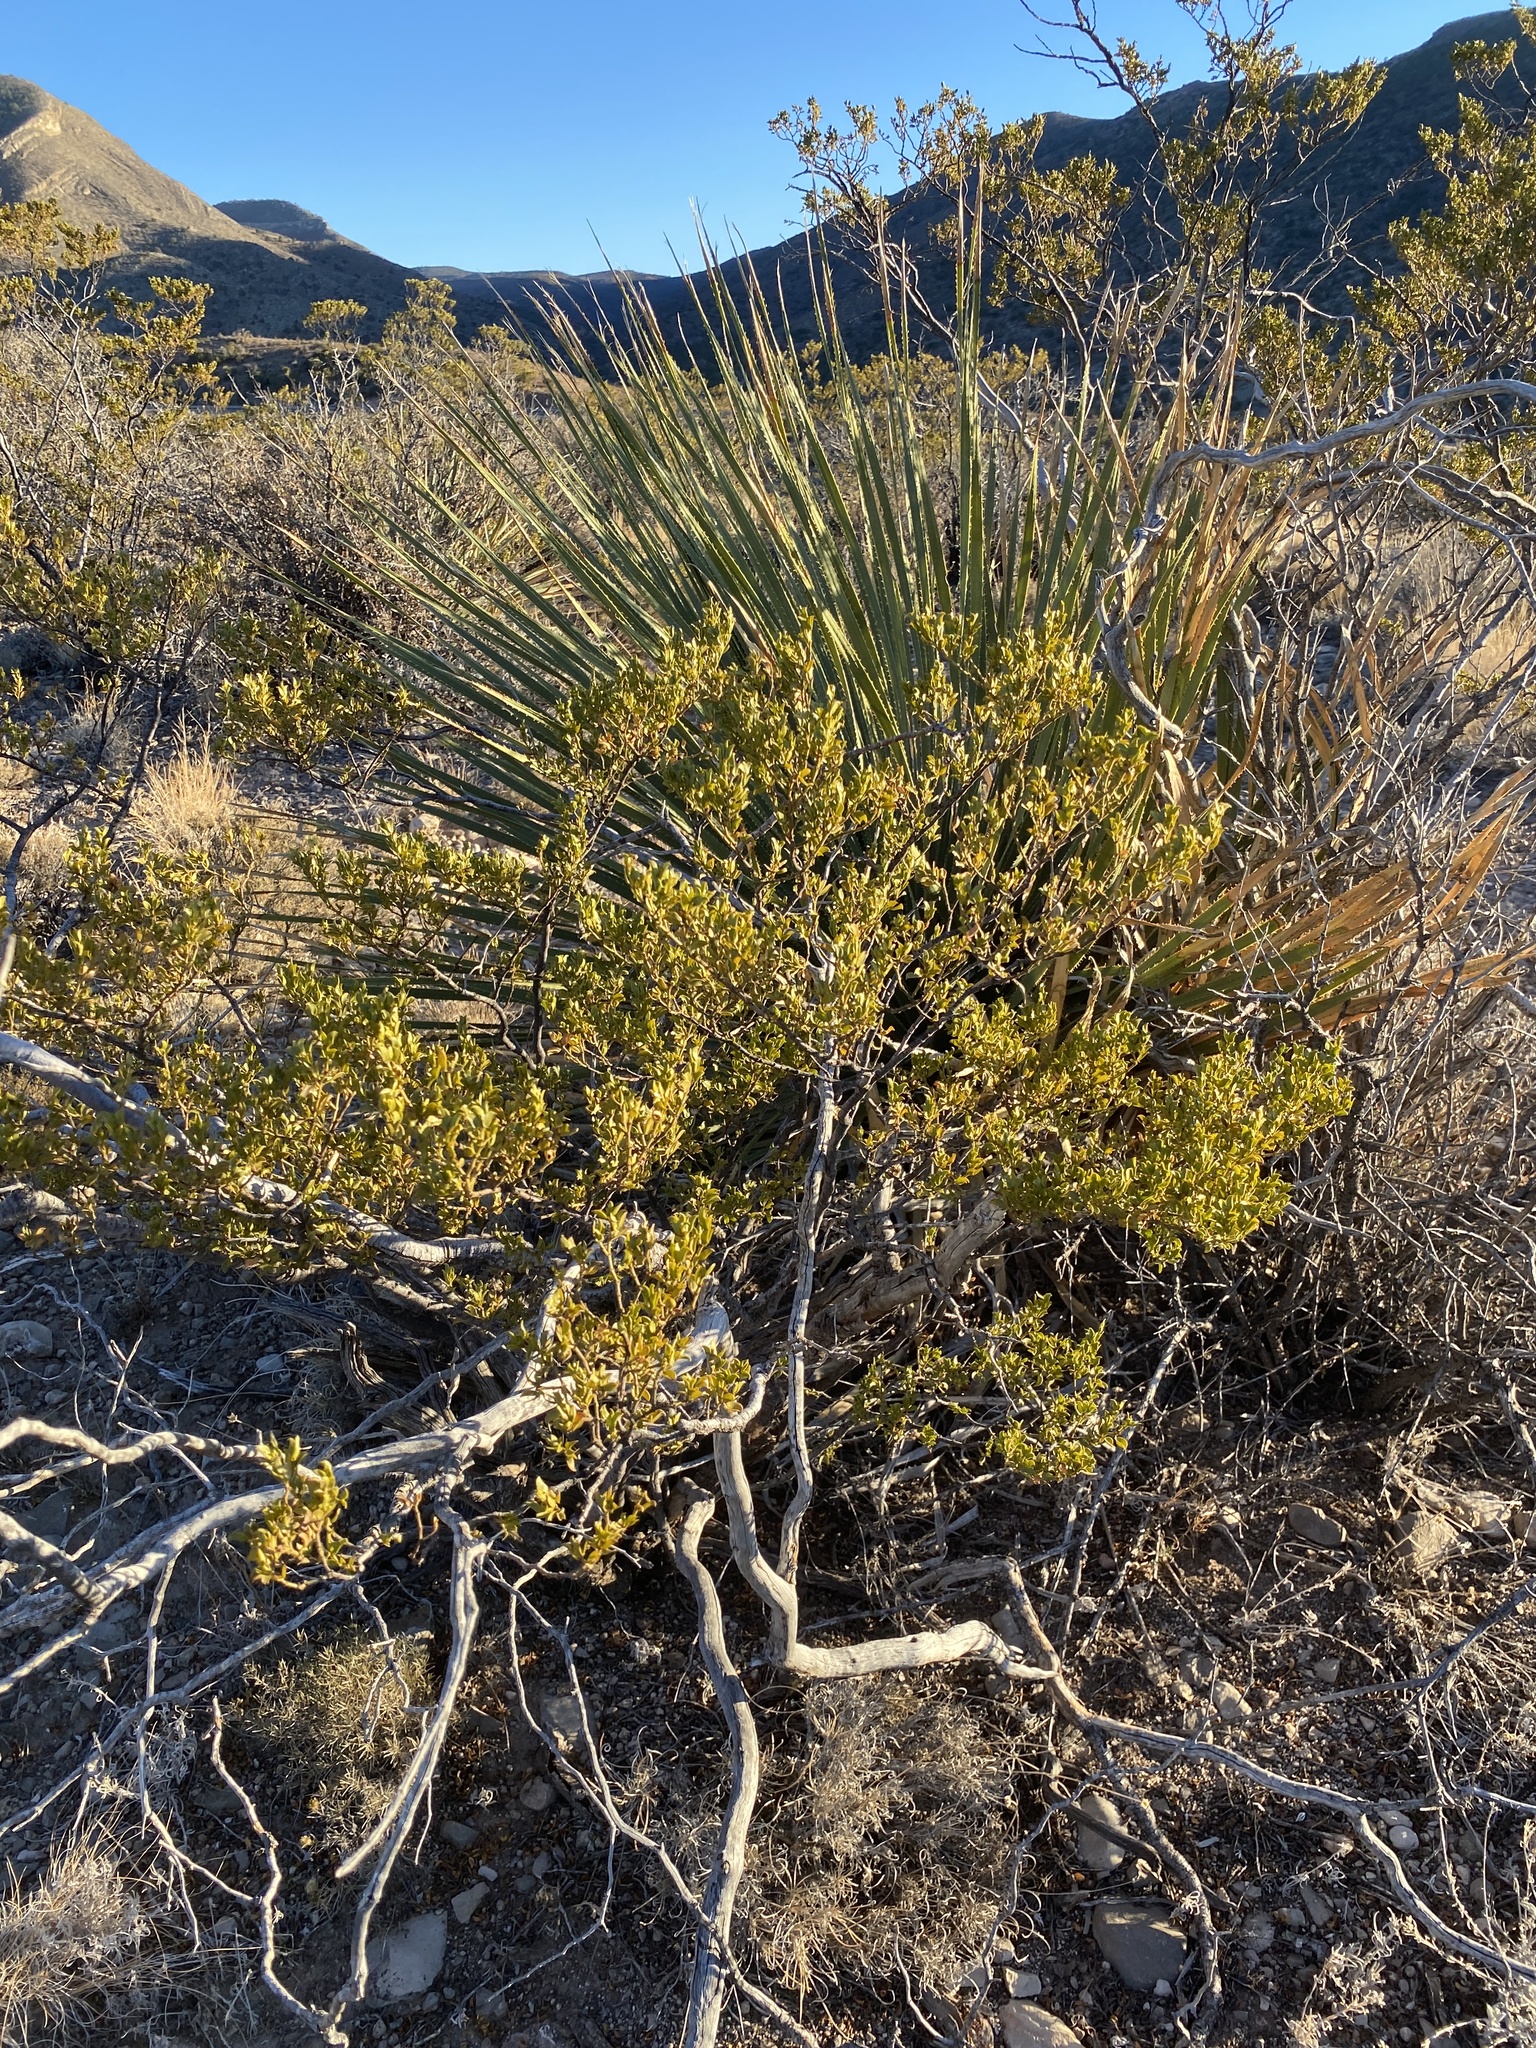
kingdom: Plantae
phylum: Tracheophyta
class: Magnoliopsida
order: Zygophyllales
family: Zygophyllaceae
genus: Larrea
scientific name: Larrea tridentata
